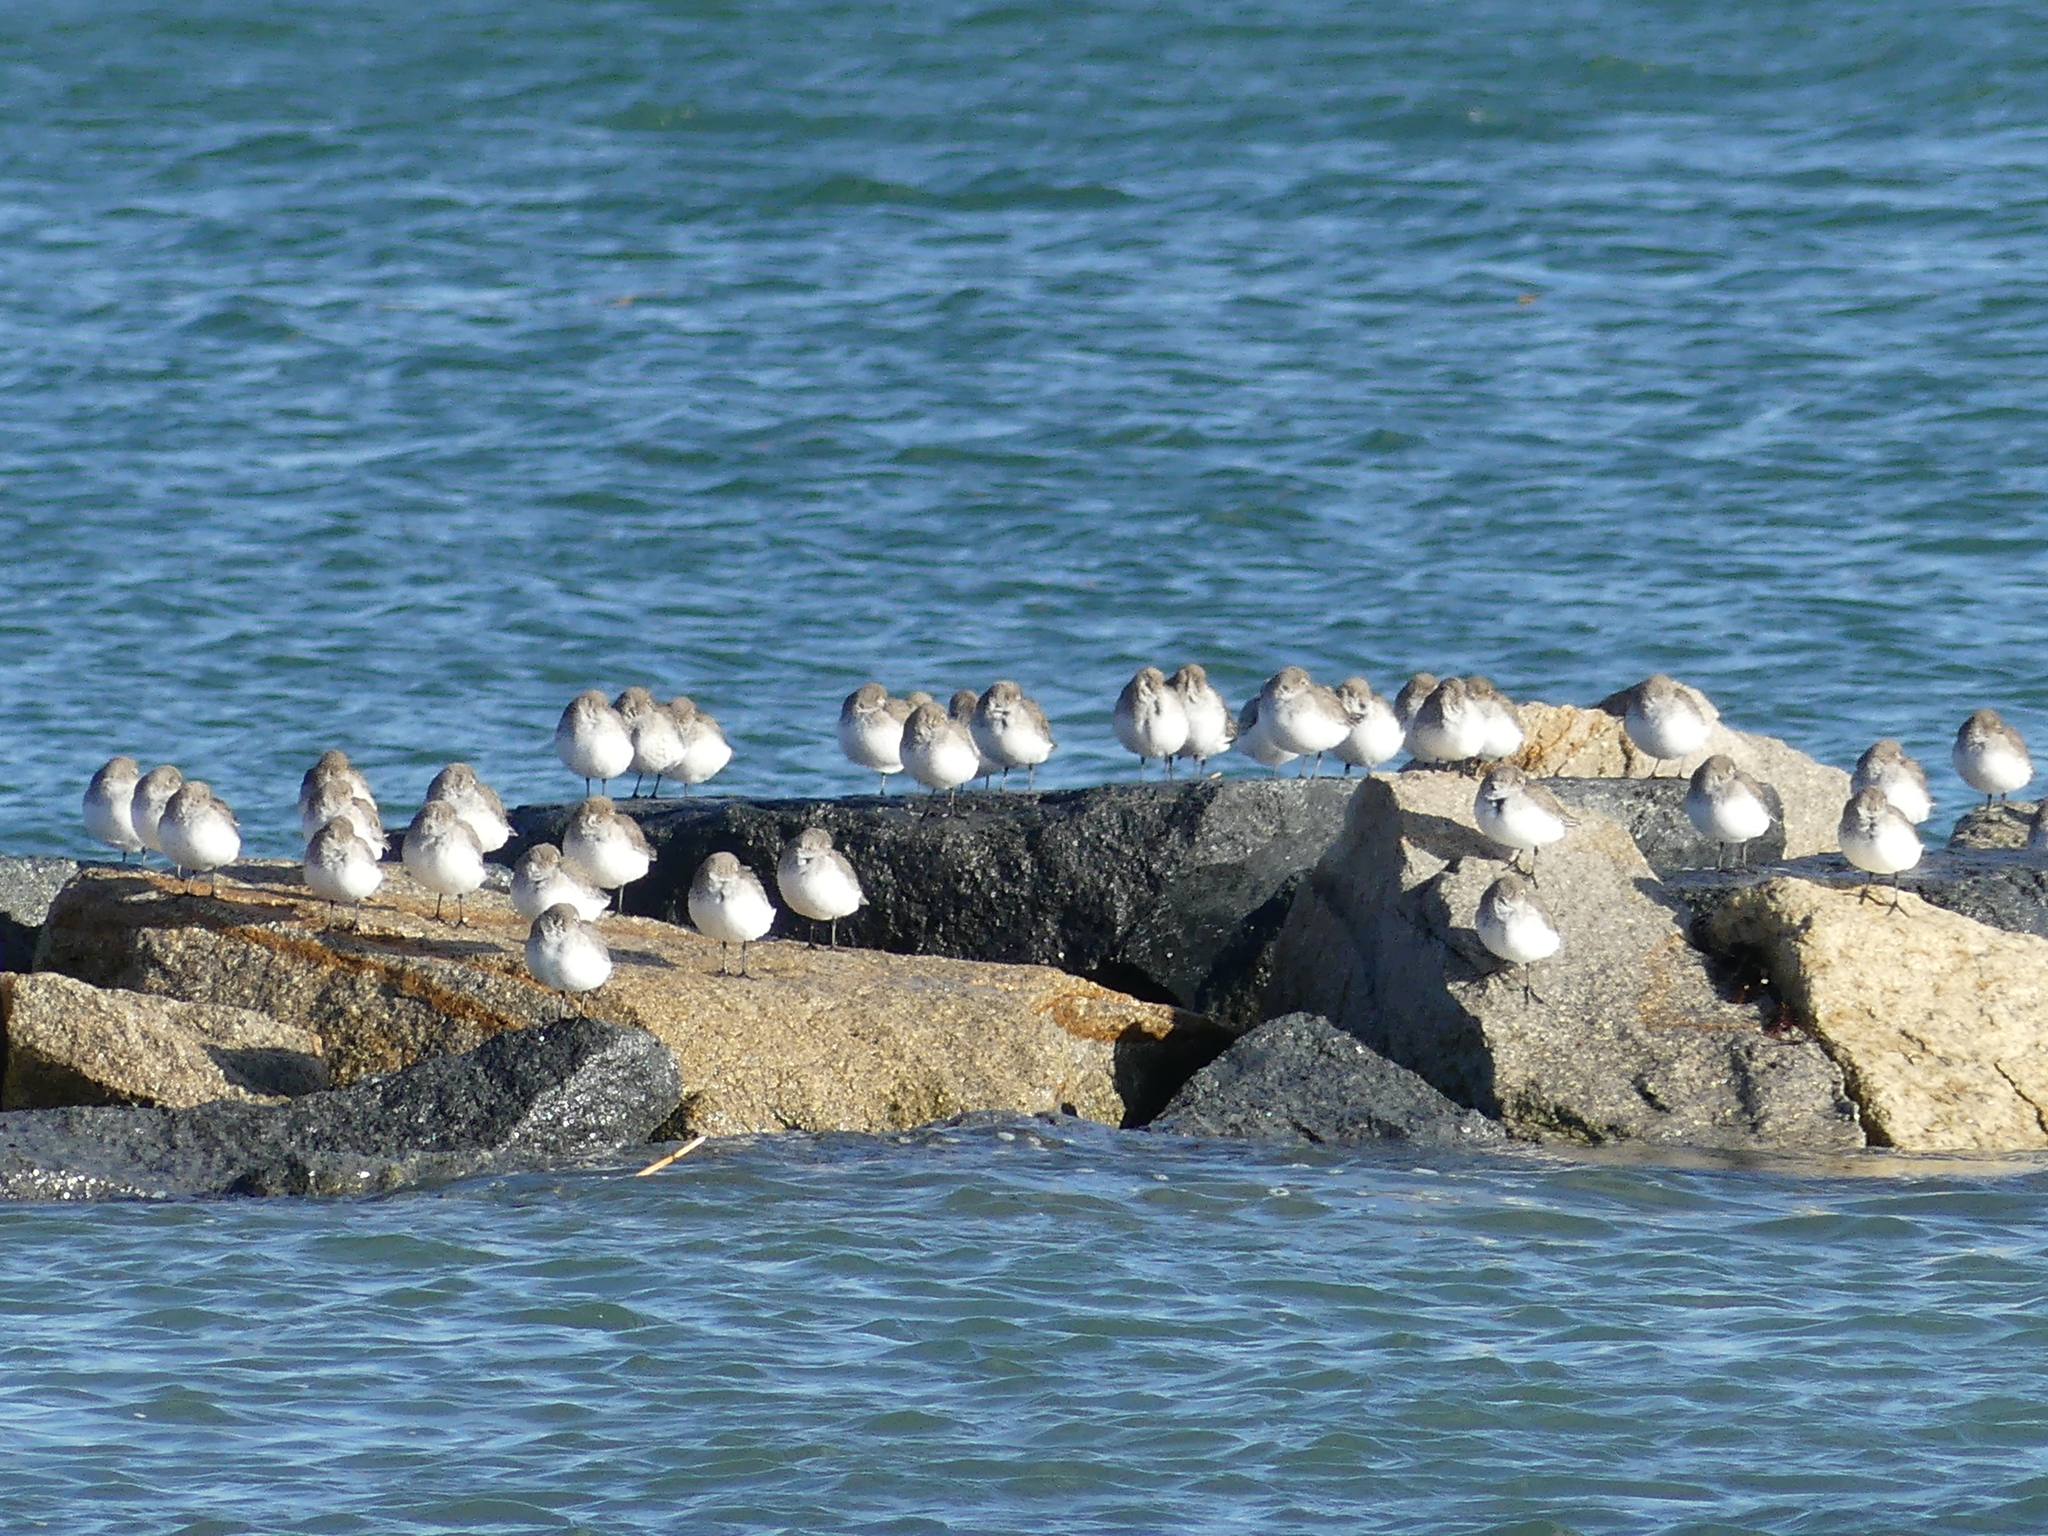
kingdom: Animalia
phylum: Chordata
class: Aves
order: Charadriiformes
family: Scolopacidae
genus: Calidris
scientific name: Calidris alpina
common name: Dunlin
